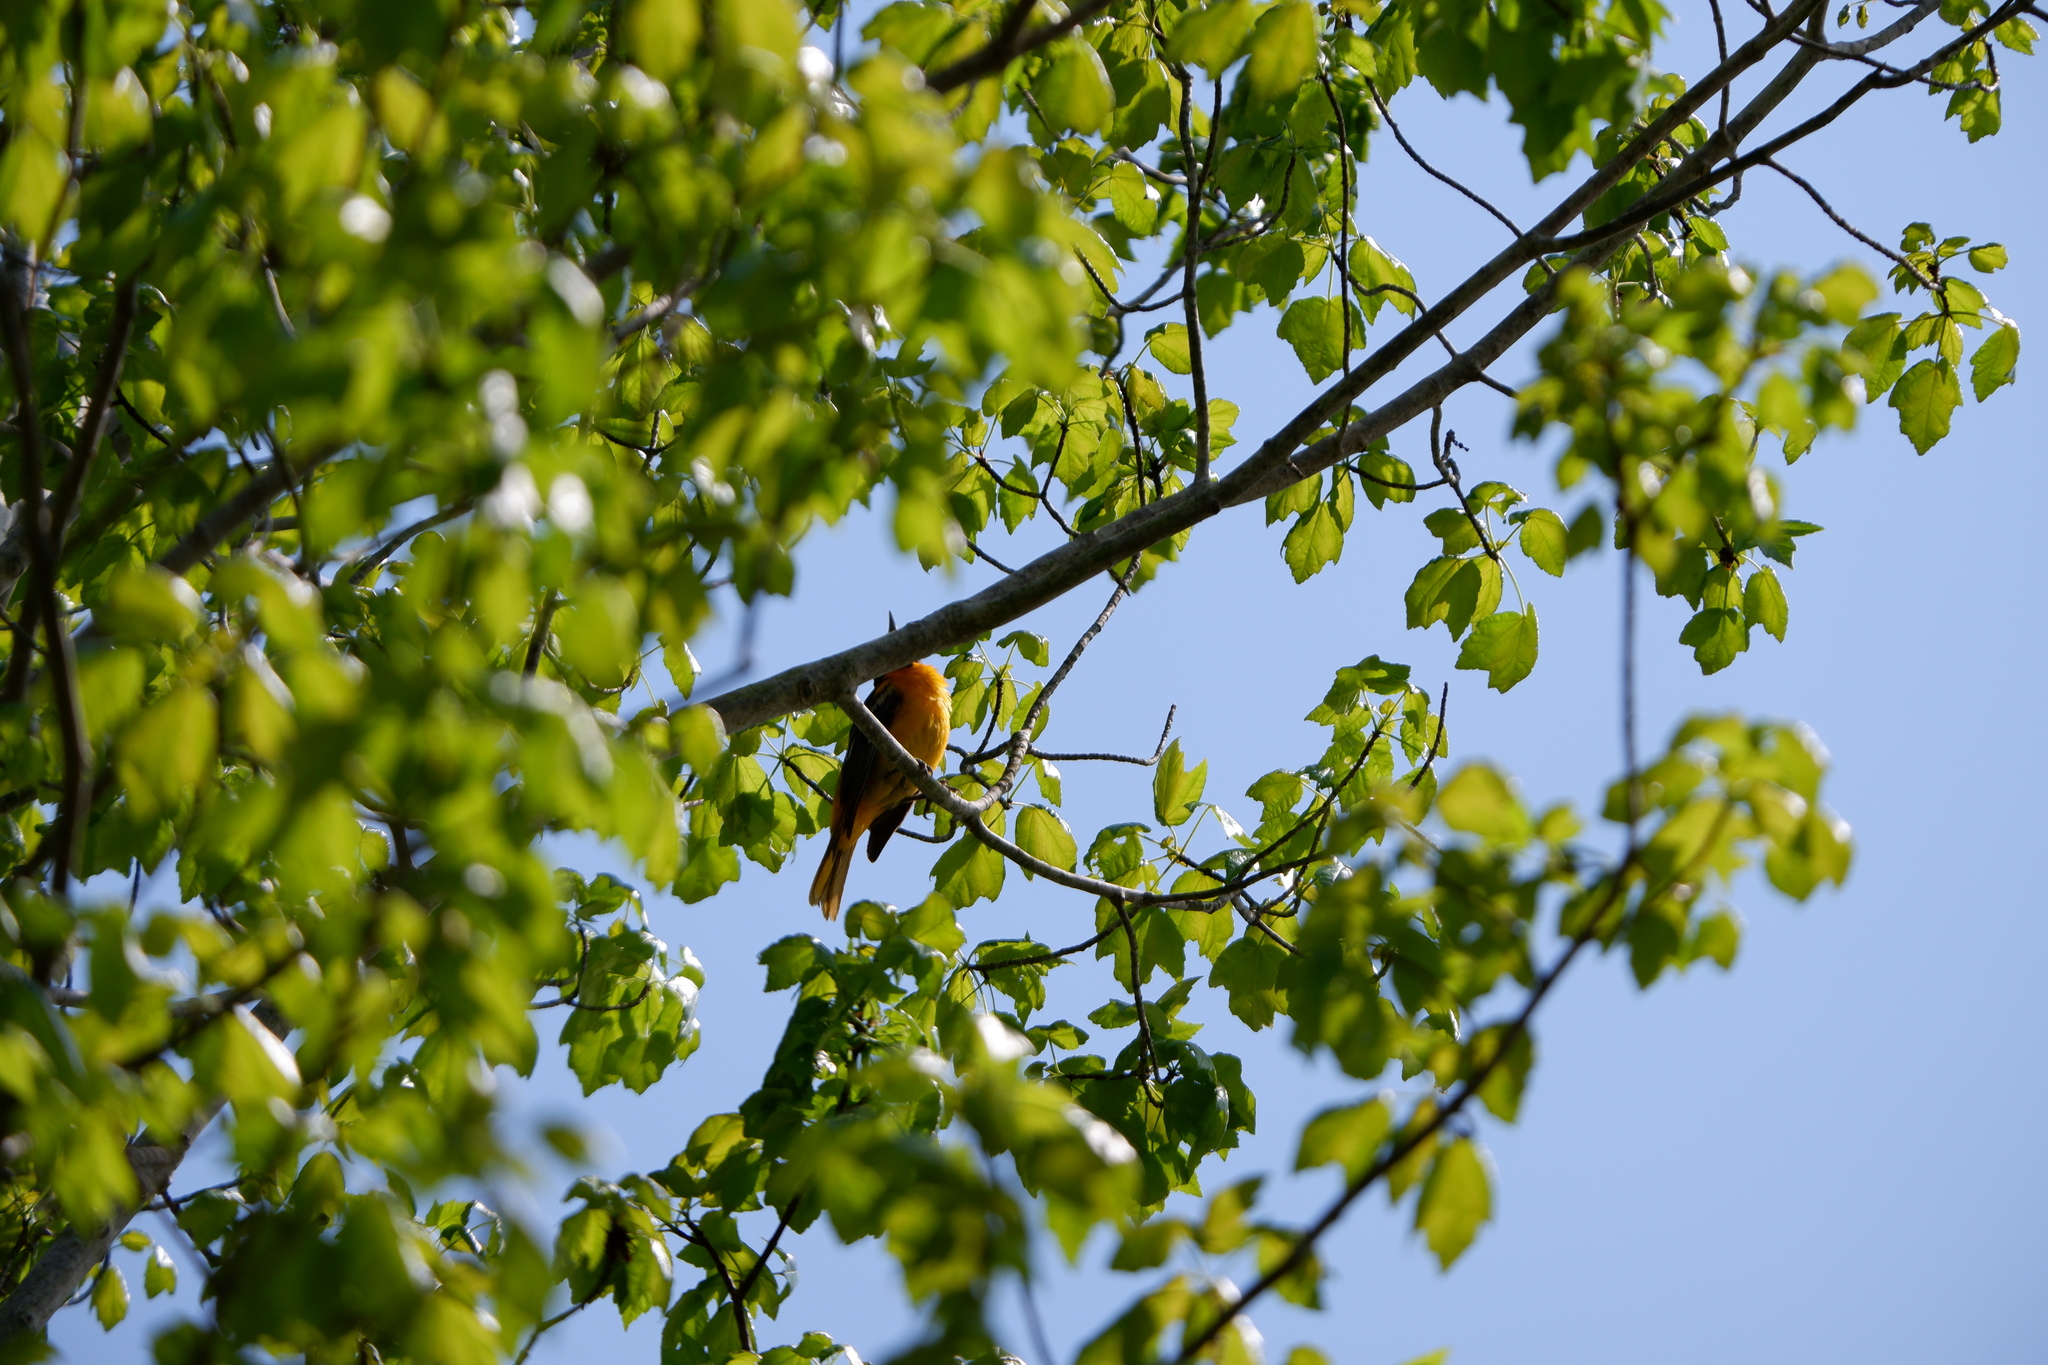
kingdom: Animalia
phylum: Chordata
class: Aves
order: Passeriformes
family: Icteridae
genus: Icterus
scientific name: Icterus galbula
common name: Baltimore oriole
